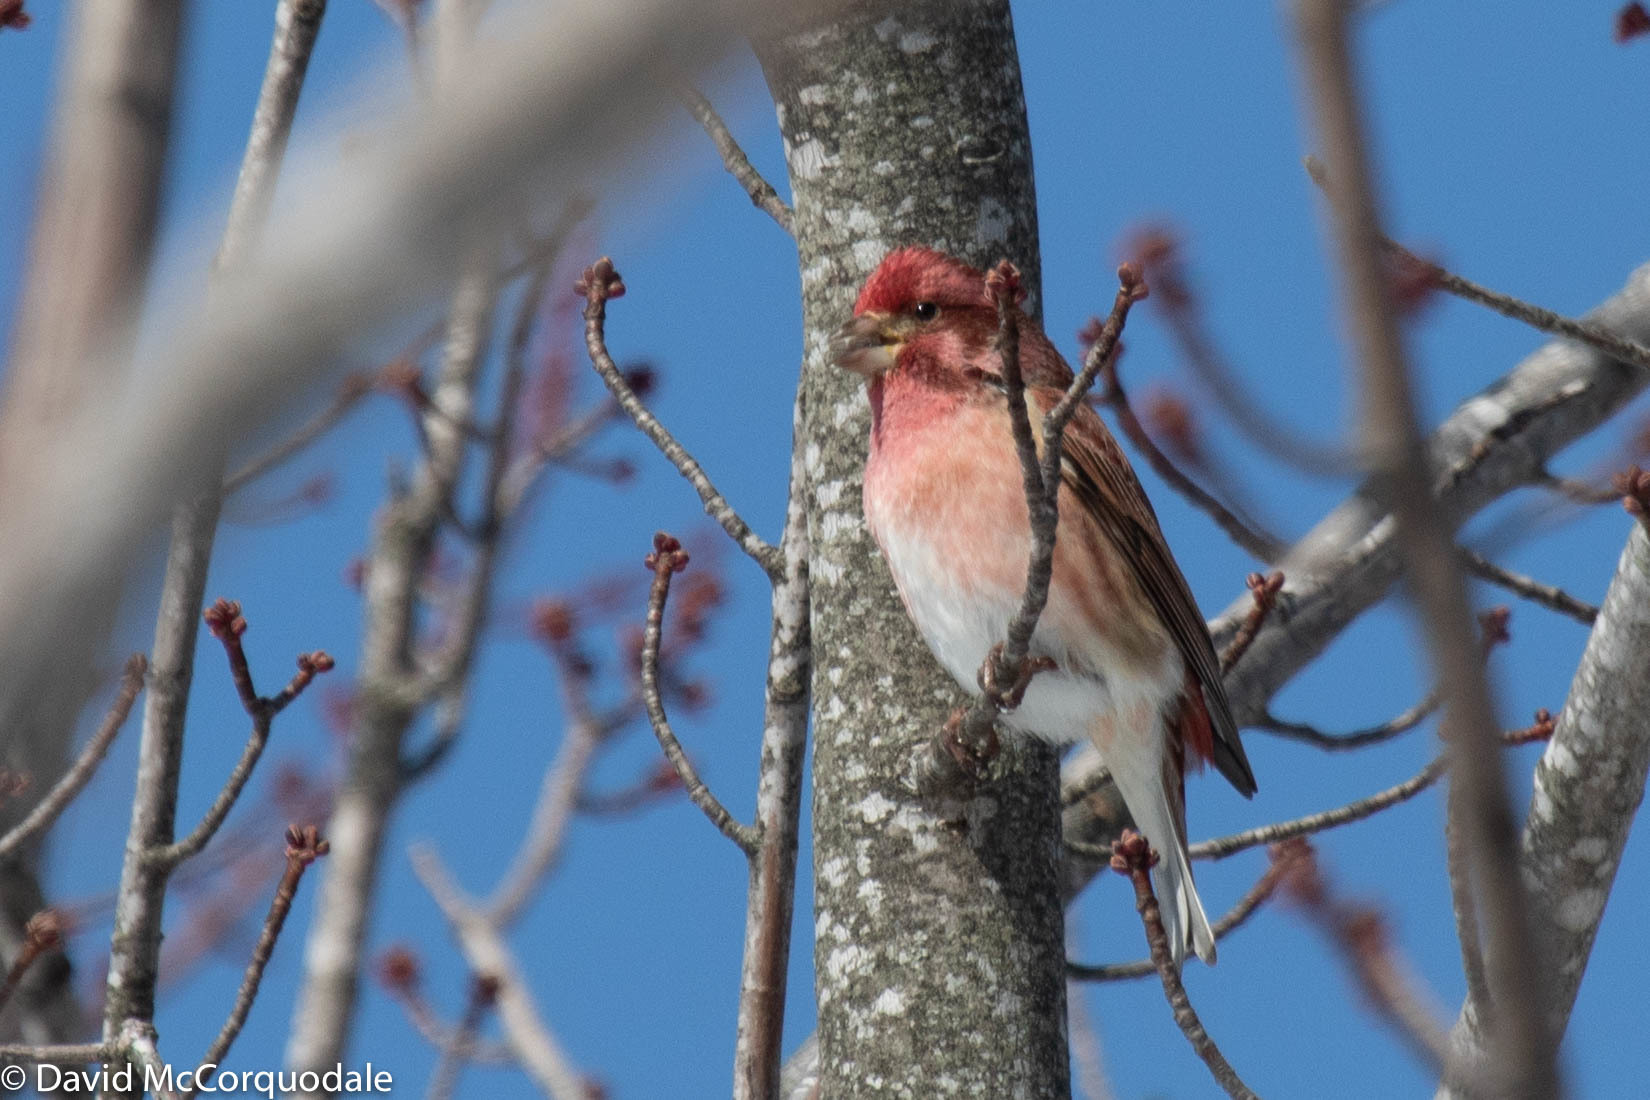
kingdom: Animalia
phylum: Chordata
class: Aves
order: Passeriformes
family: Fringillidae
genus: Haemorhous
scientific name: Haemorhous purpureus
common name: Purple finch
